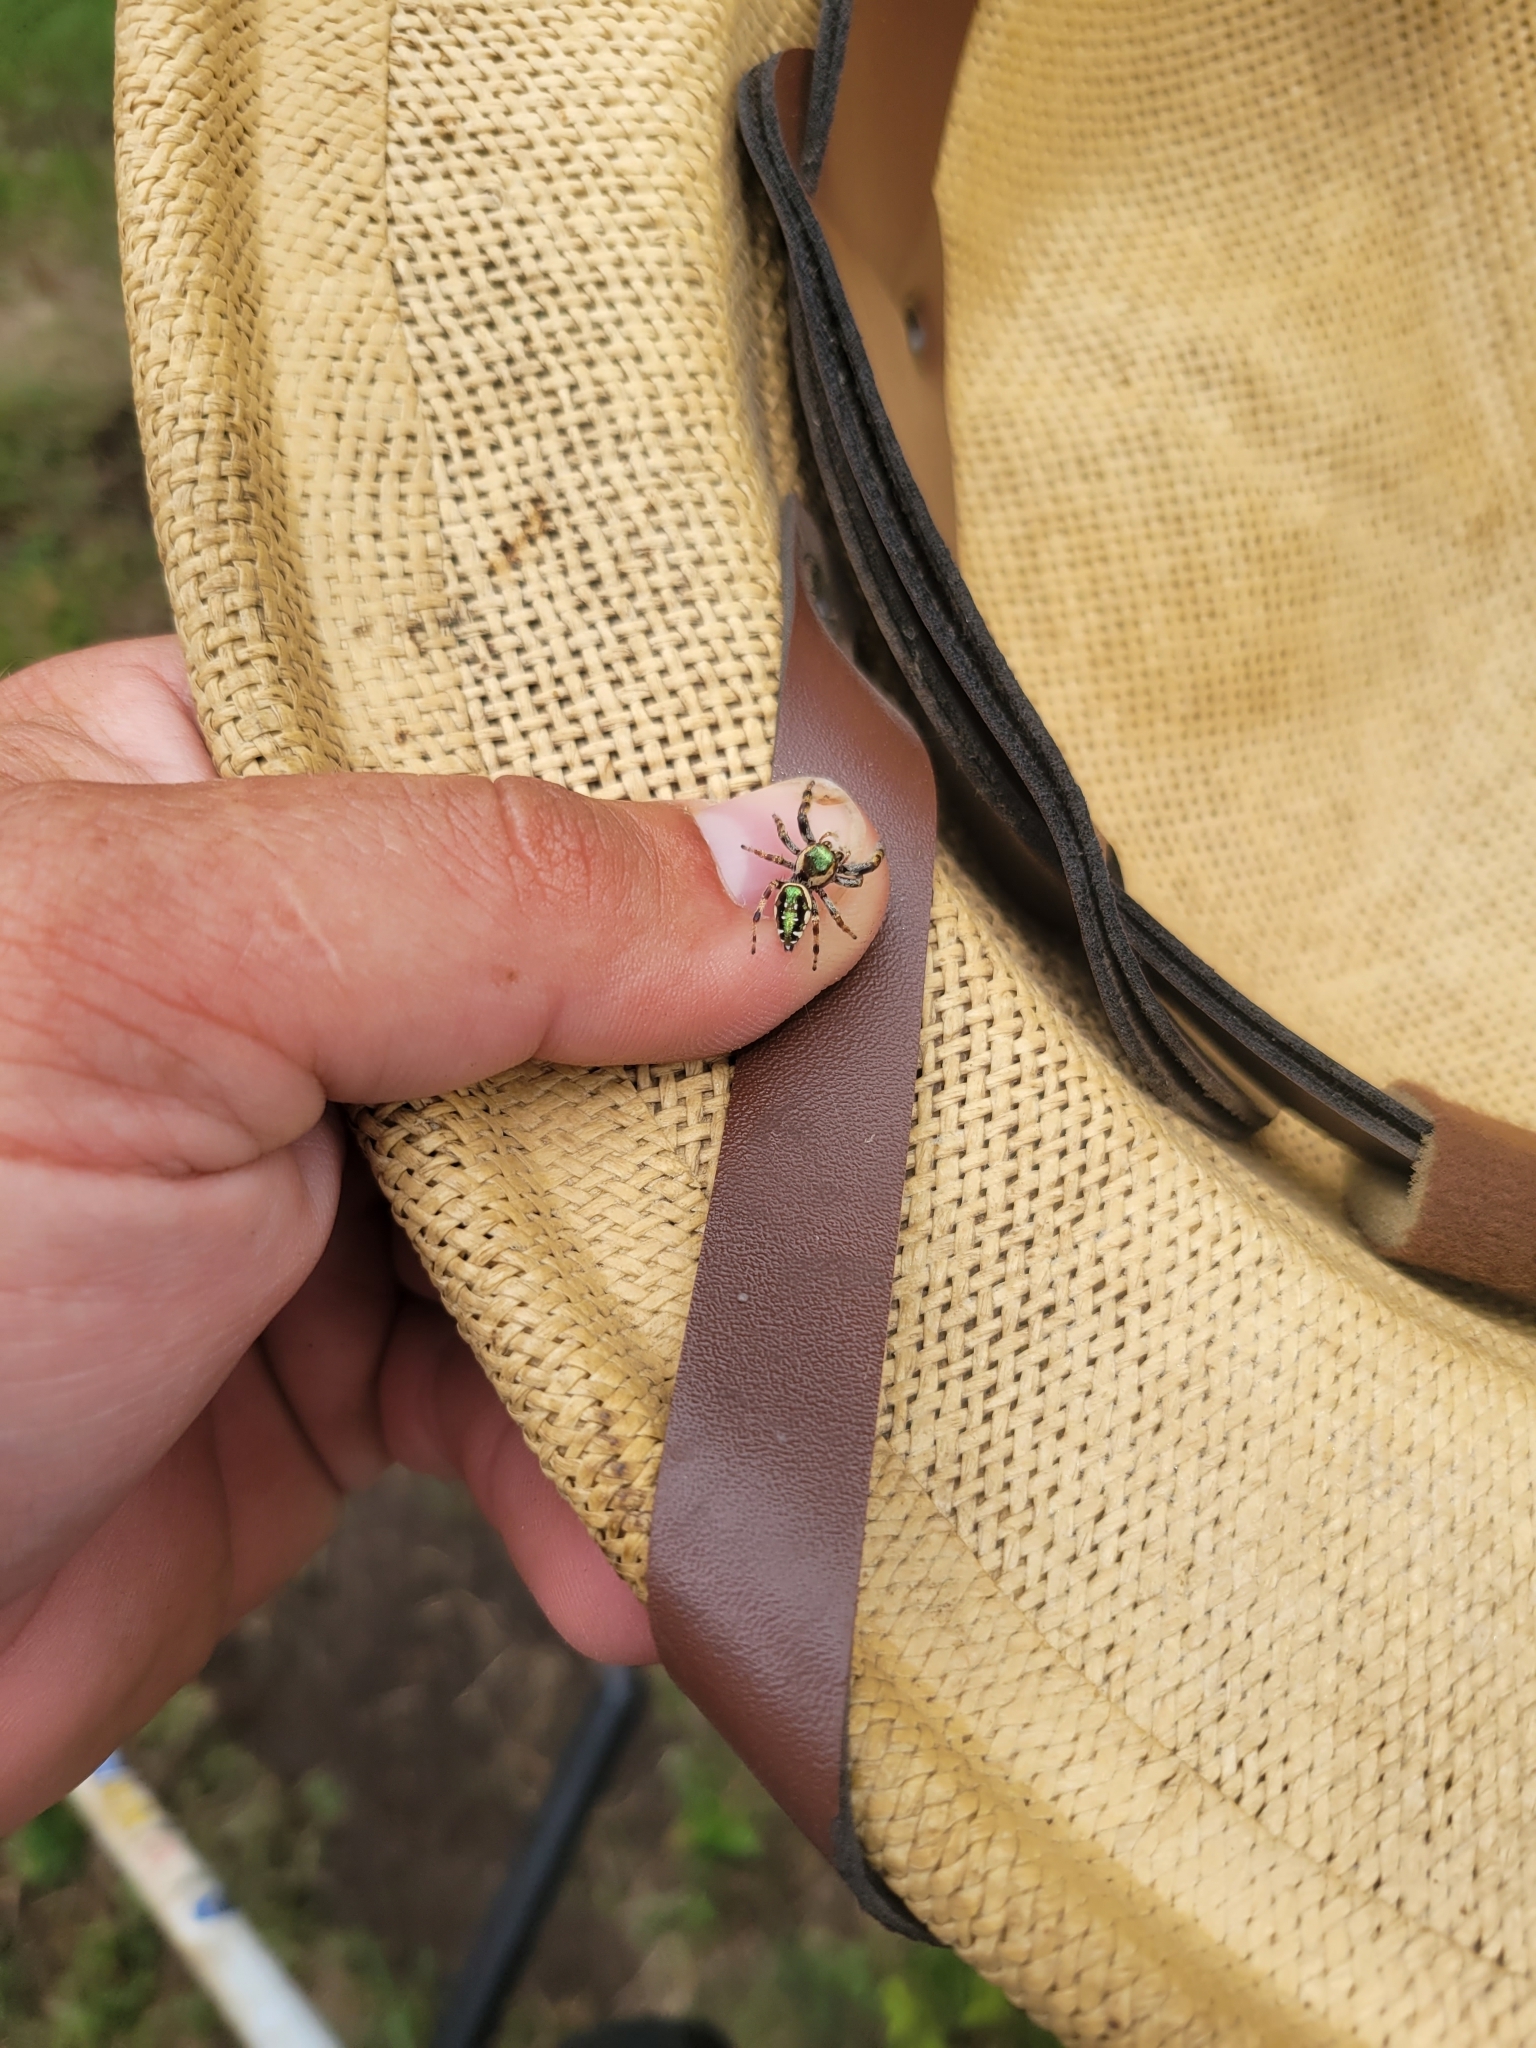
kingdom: Animalia
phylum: Arthropoda
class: Arachnida
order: Araneae
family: Salticidae
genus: Paraphidippus
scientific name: Paraphidippus aurantius
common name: Jumping spiders
